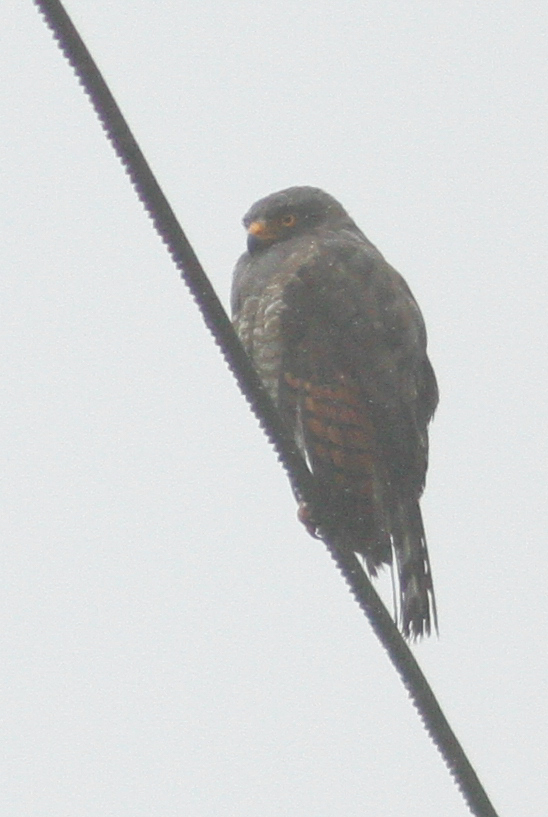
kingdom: Animalia
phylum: Chordata
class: Aves
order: Accipitriformes
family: Accipitridae
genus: Rupornis
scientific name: Rupornis magnirostris
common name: Roadside hawk
